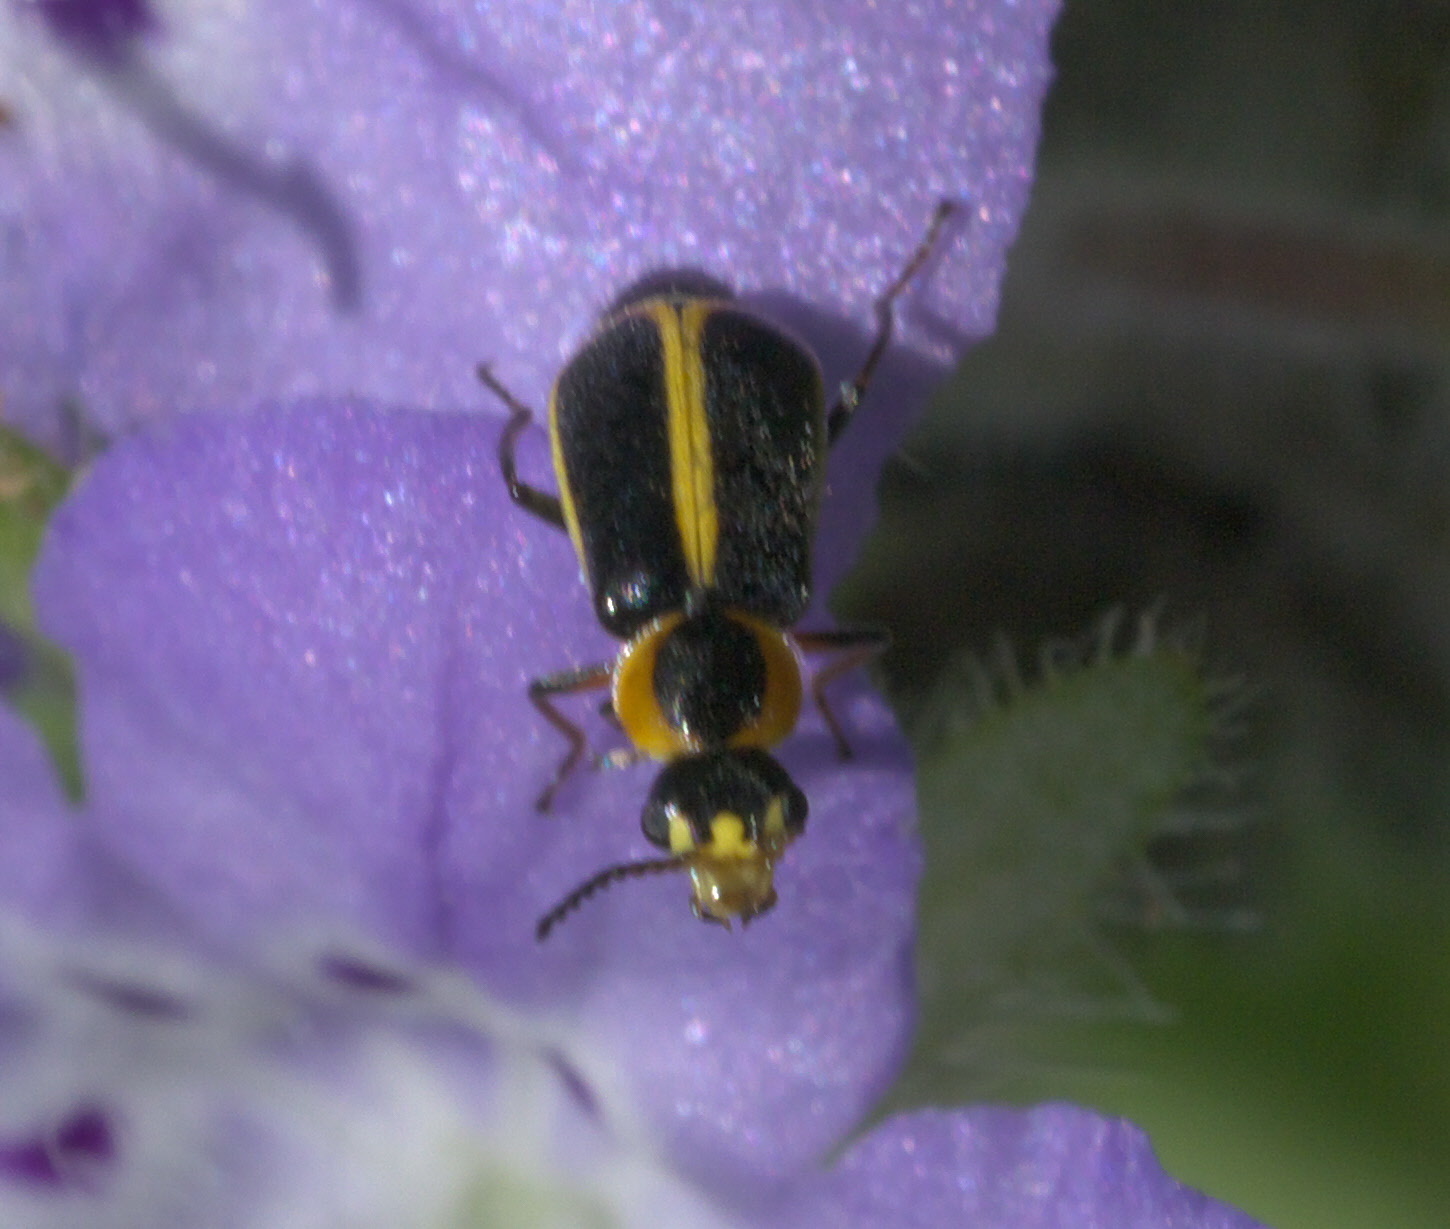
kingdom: Animalia
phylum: Arthropoda
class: Insecta
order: Coleoptera
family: Malachiidae
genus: Attalus
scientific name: Attalus
